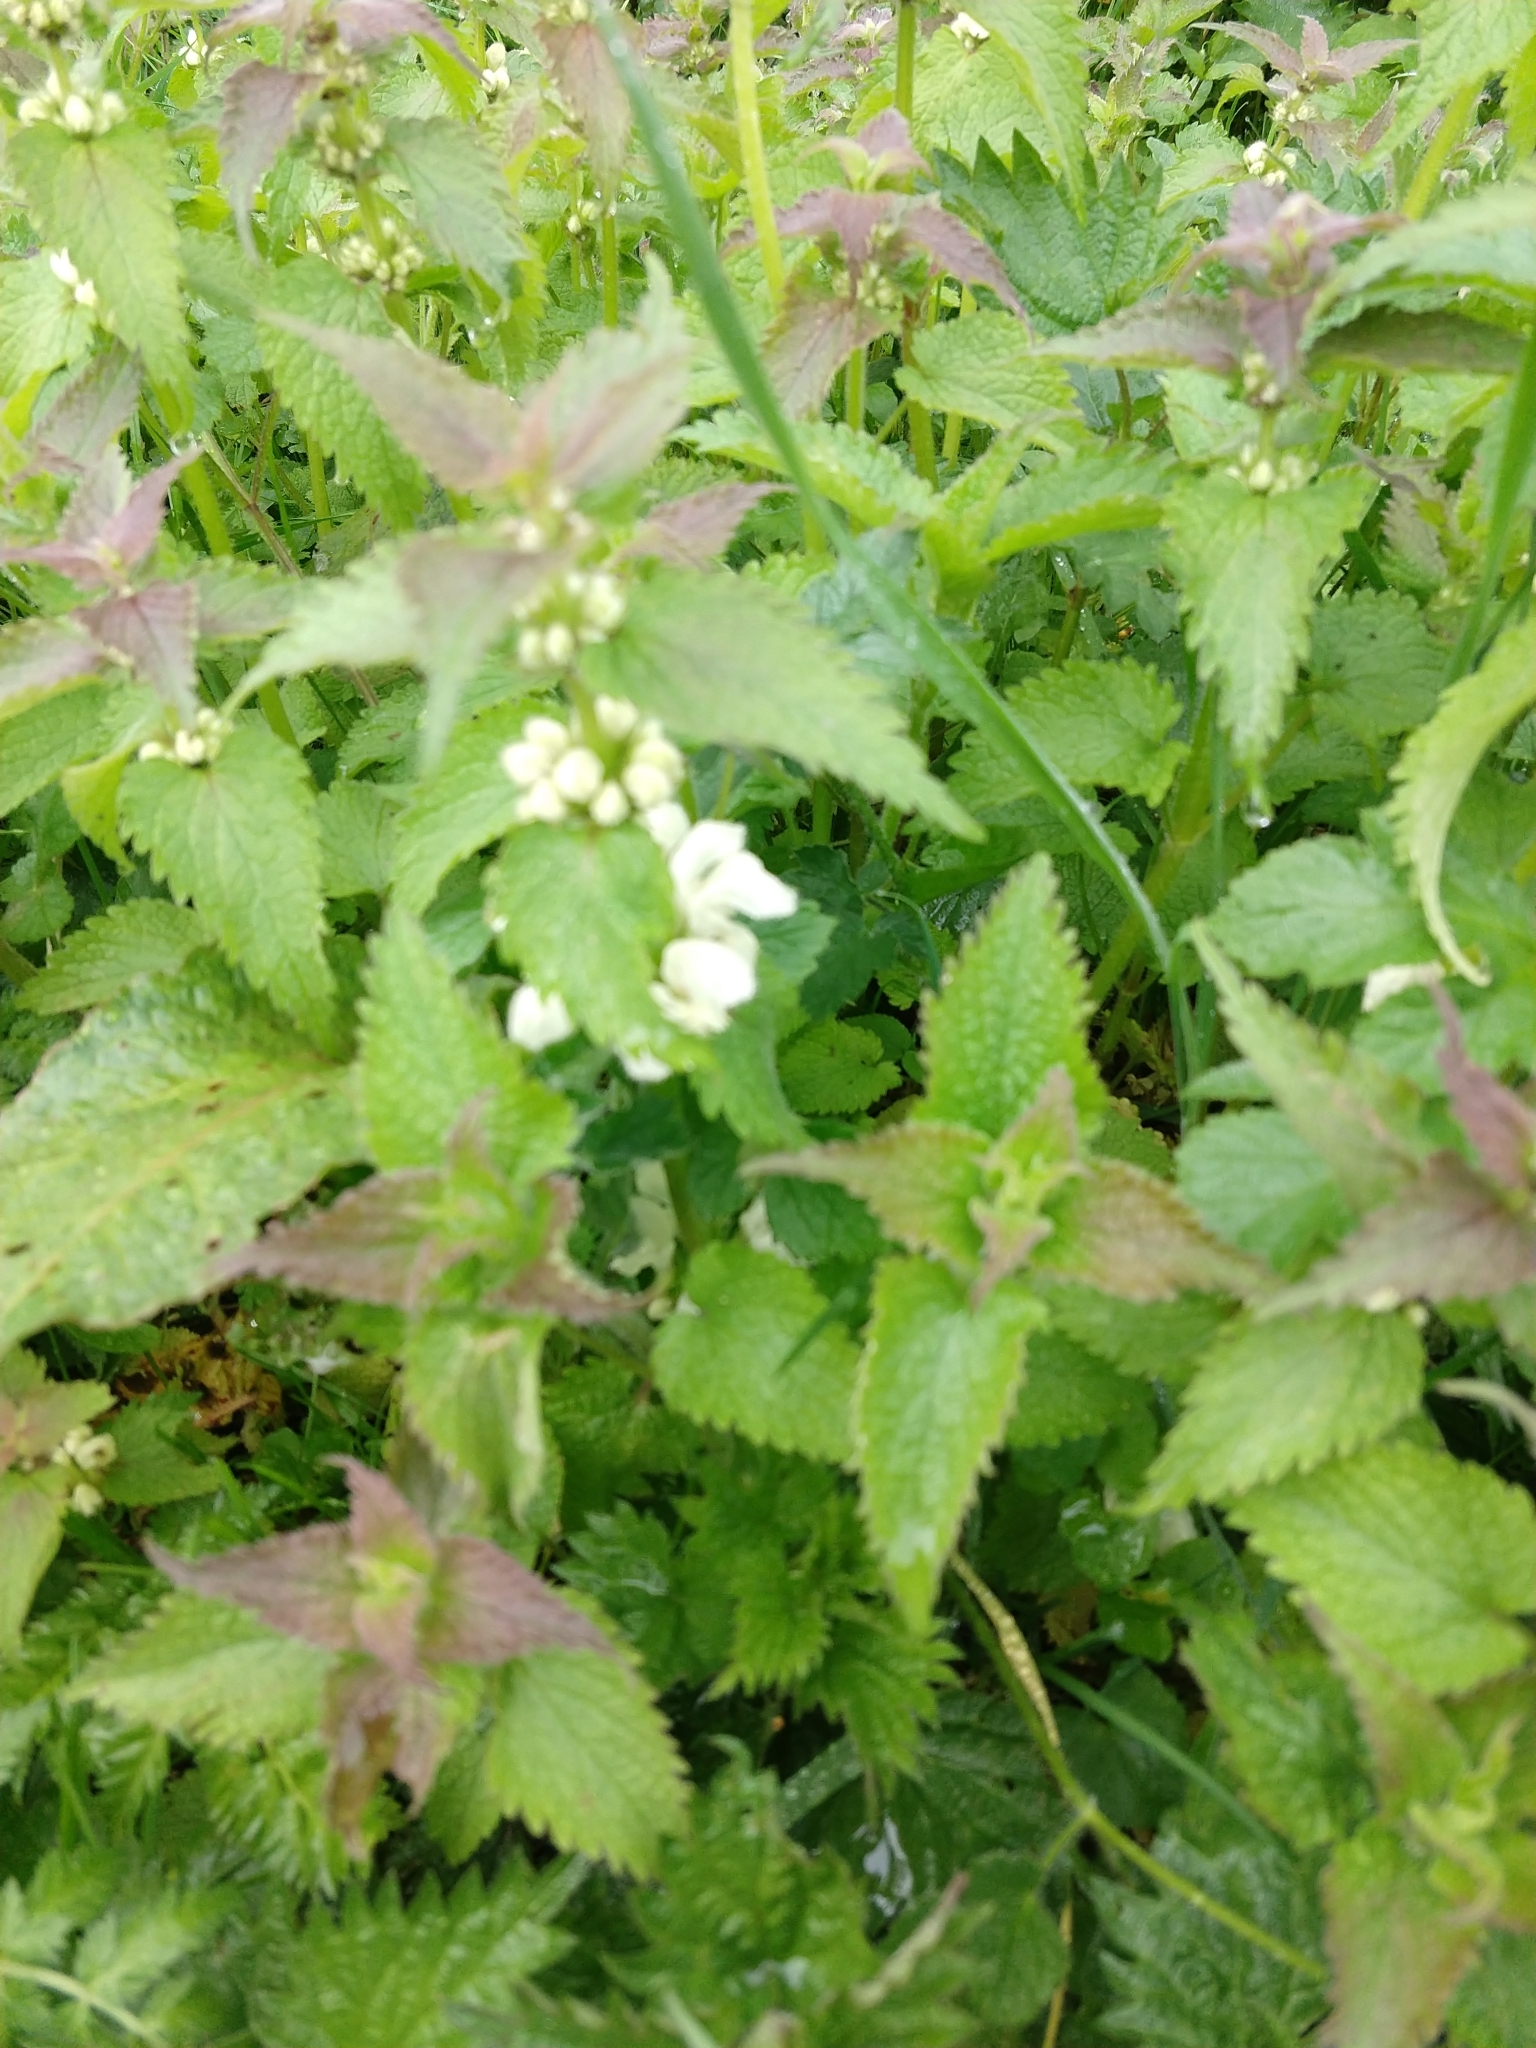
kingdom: Plantae
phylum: Tracheophyta
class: Magnoliopsida
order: Lamiales
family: Lamiaceae
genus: Lamium
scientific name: Lamium album
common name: White dead-nettle
